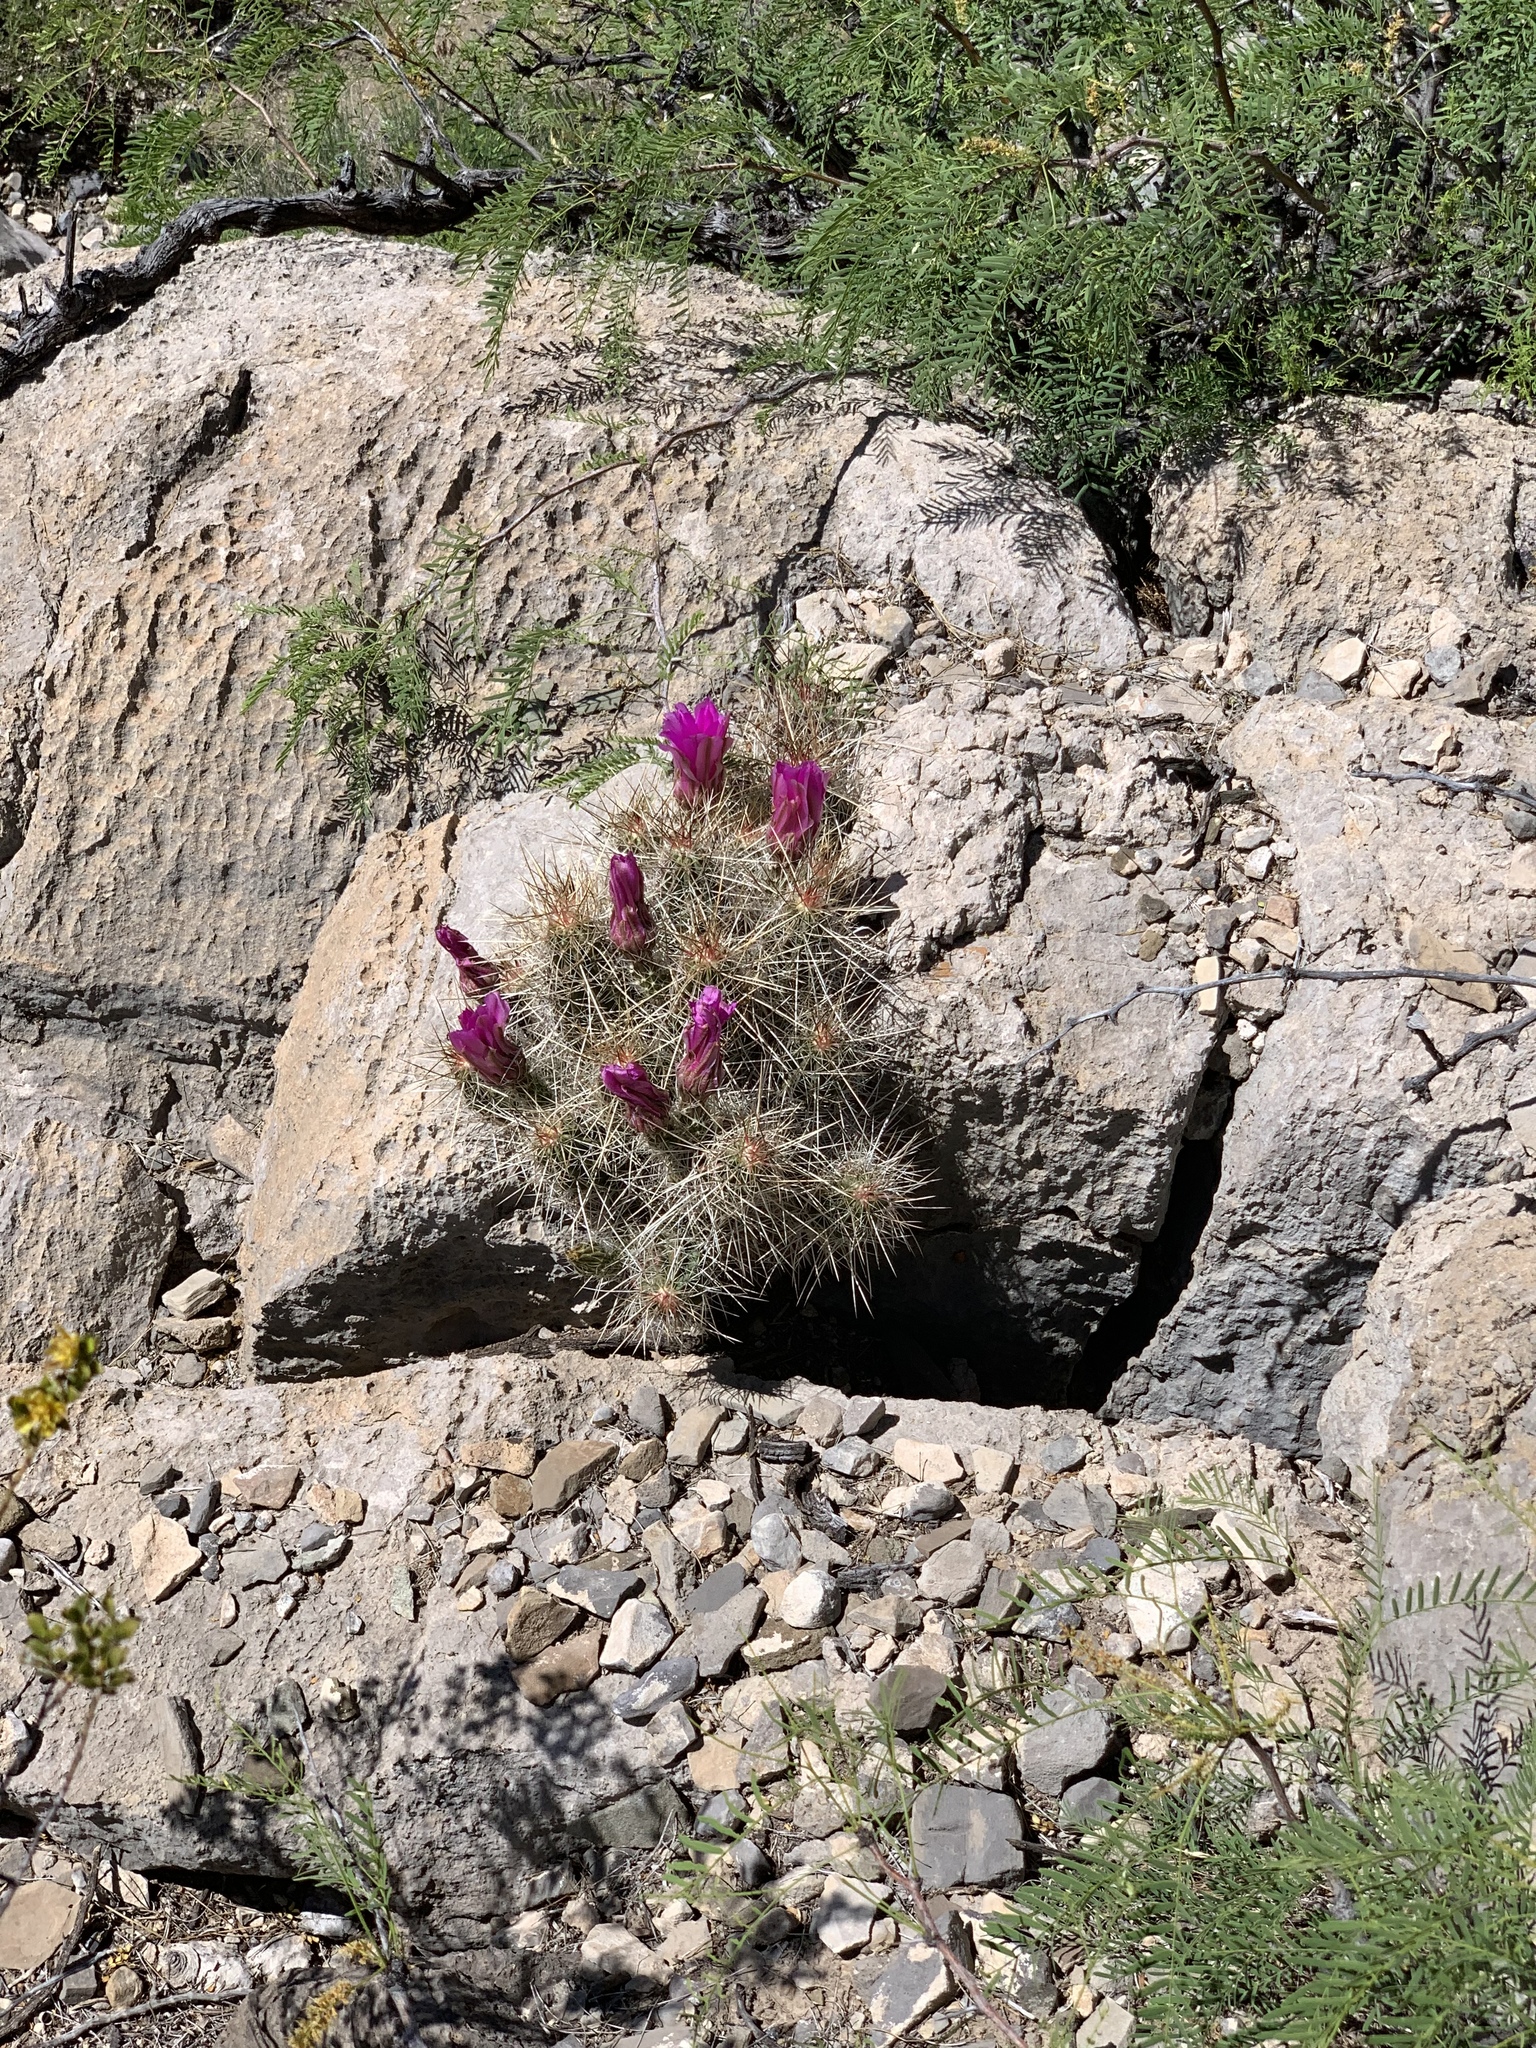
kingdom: Plantae
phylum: Tracheophyta
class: Magnoliopsida
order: Caryophyllales
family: Cactaceae
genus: Echinocereus
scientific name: Echinocereus stramineus
